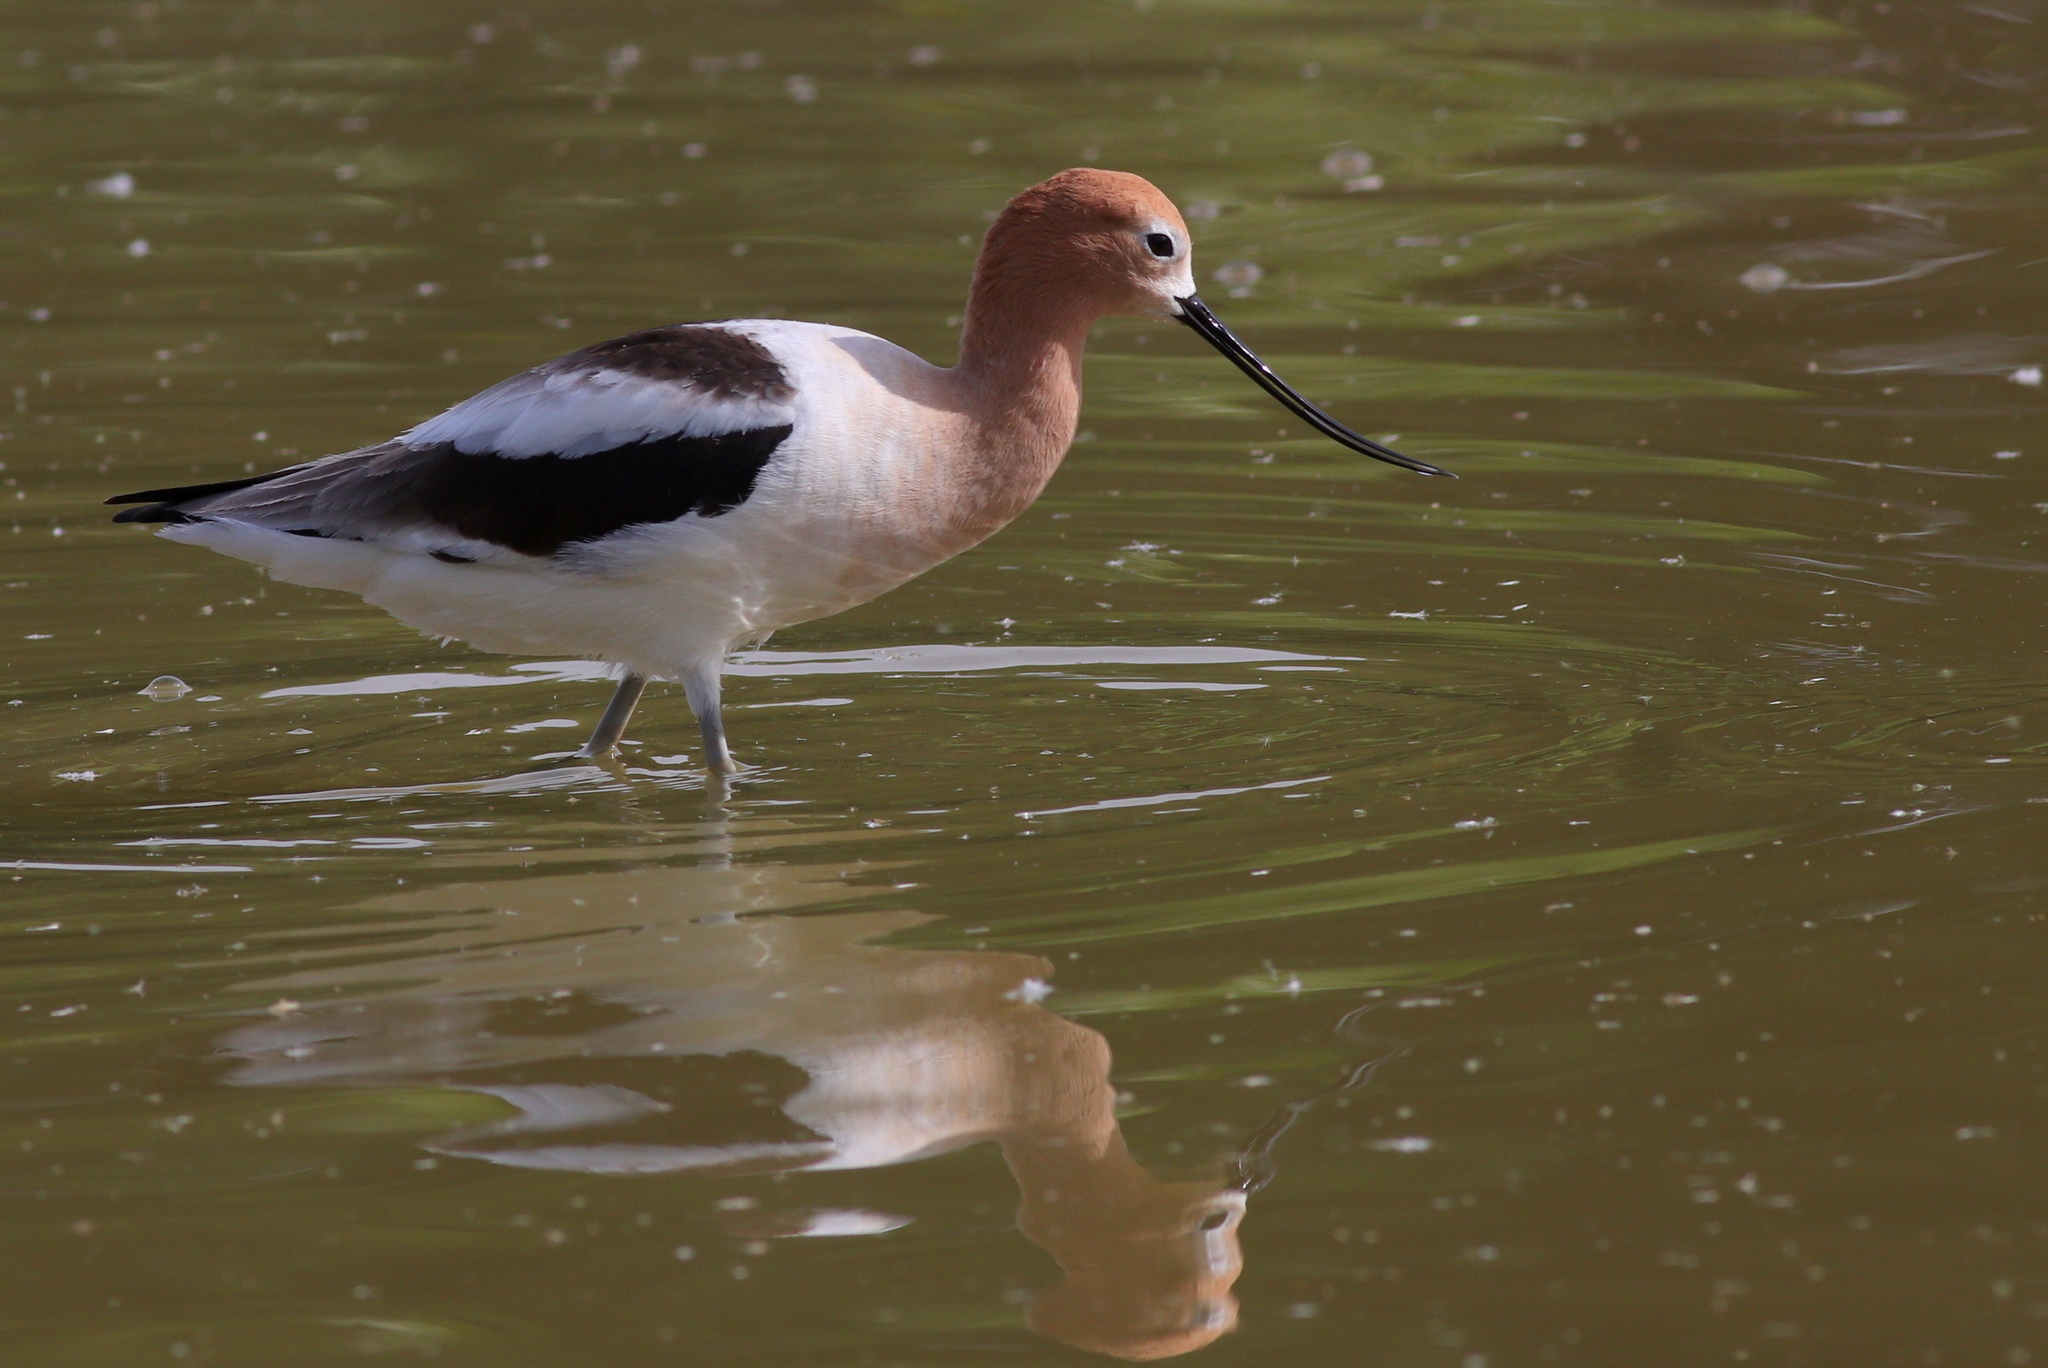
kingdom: Animalia
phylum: Chordata
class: Aves
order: Charadriiformes
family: Recurvirostridae
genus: Recurvirostra
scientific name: Recurvirostra americana
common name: American avocet
